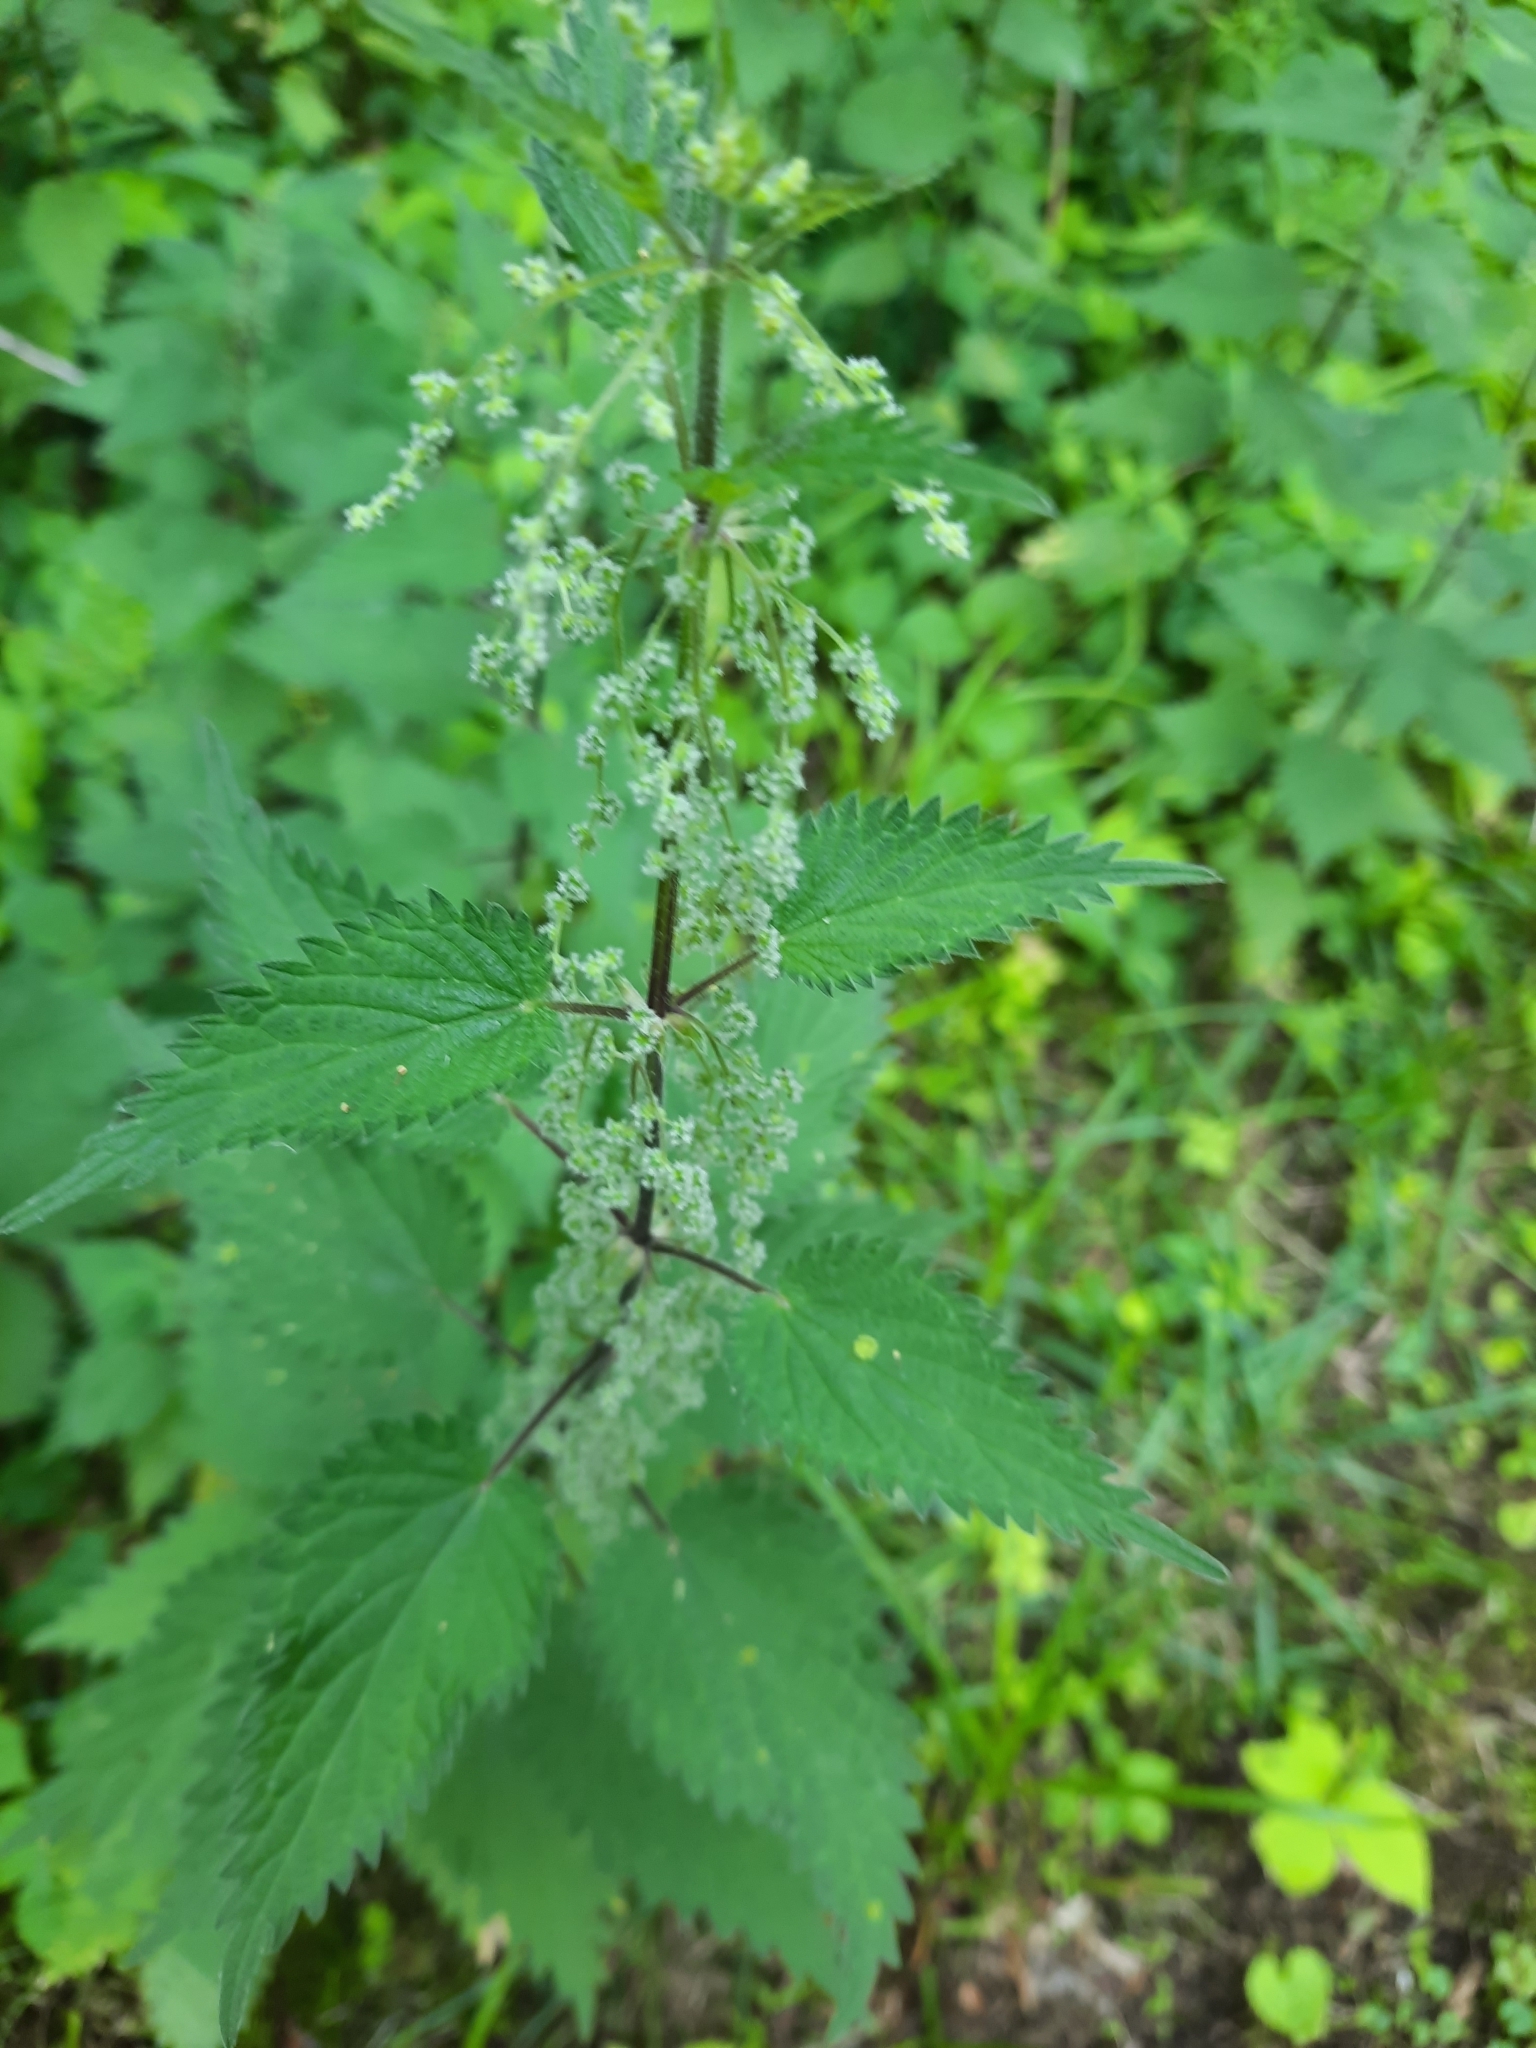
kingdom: Plantae
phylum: Tracheophyta
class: Magnoliopsida
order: Rosales
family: Urticaceae
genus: Urtica
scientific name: Urtica dioica
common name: Common nettle
